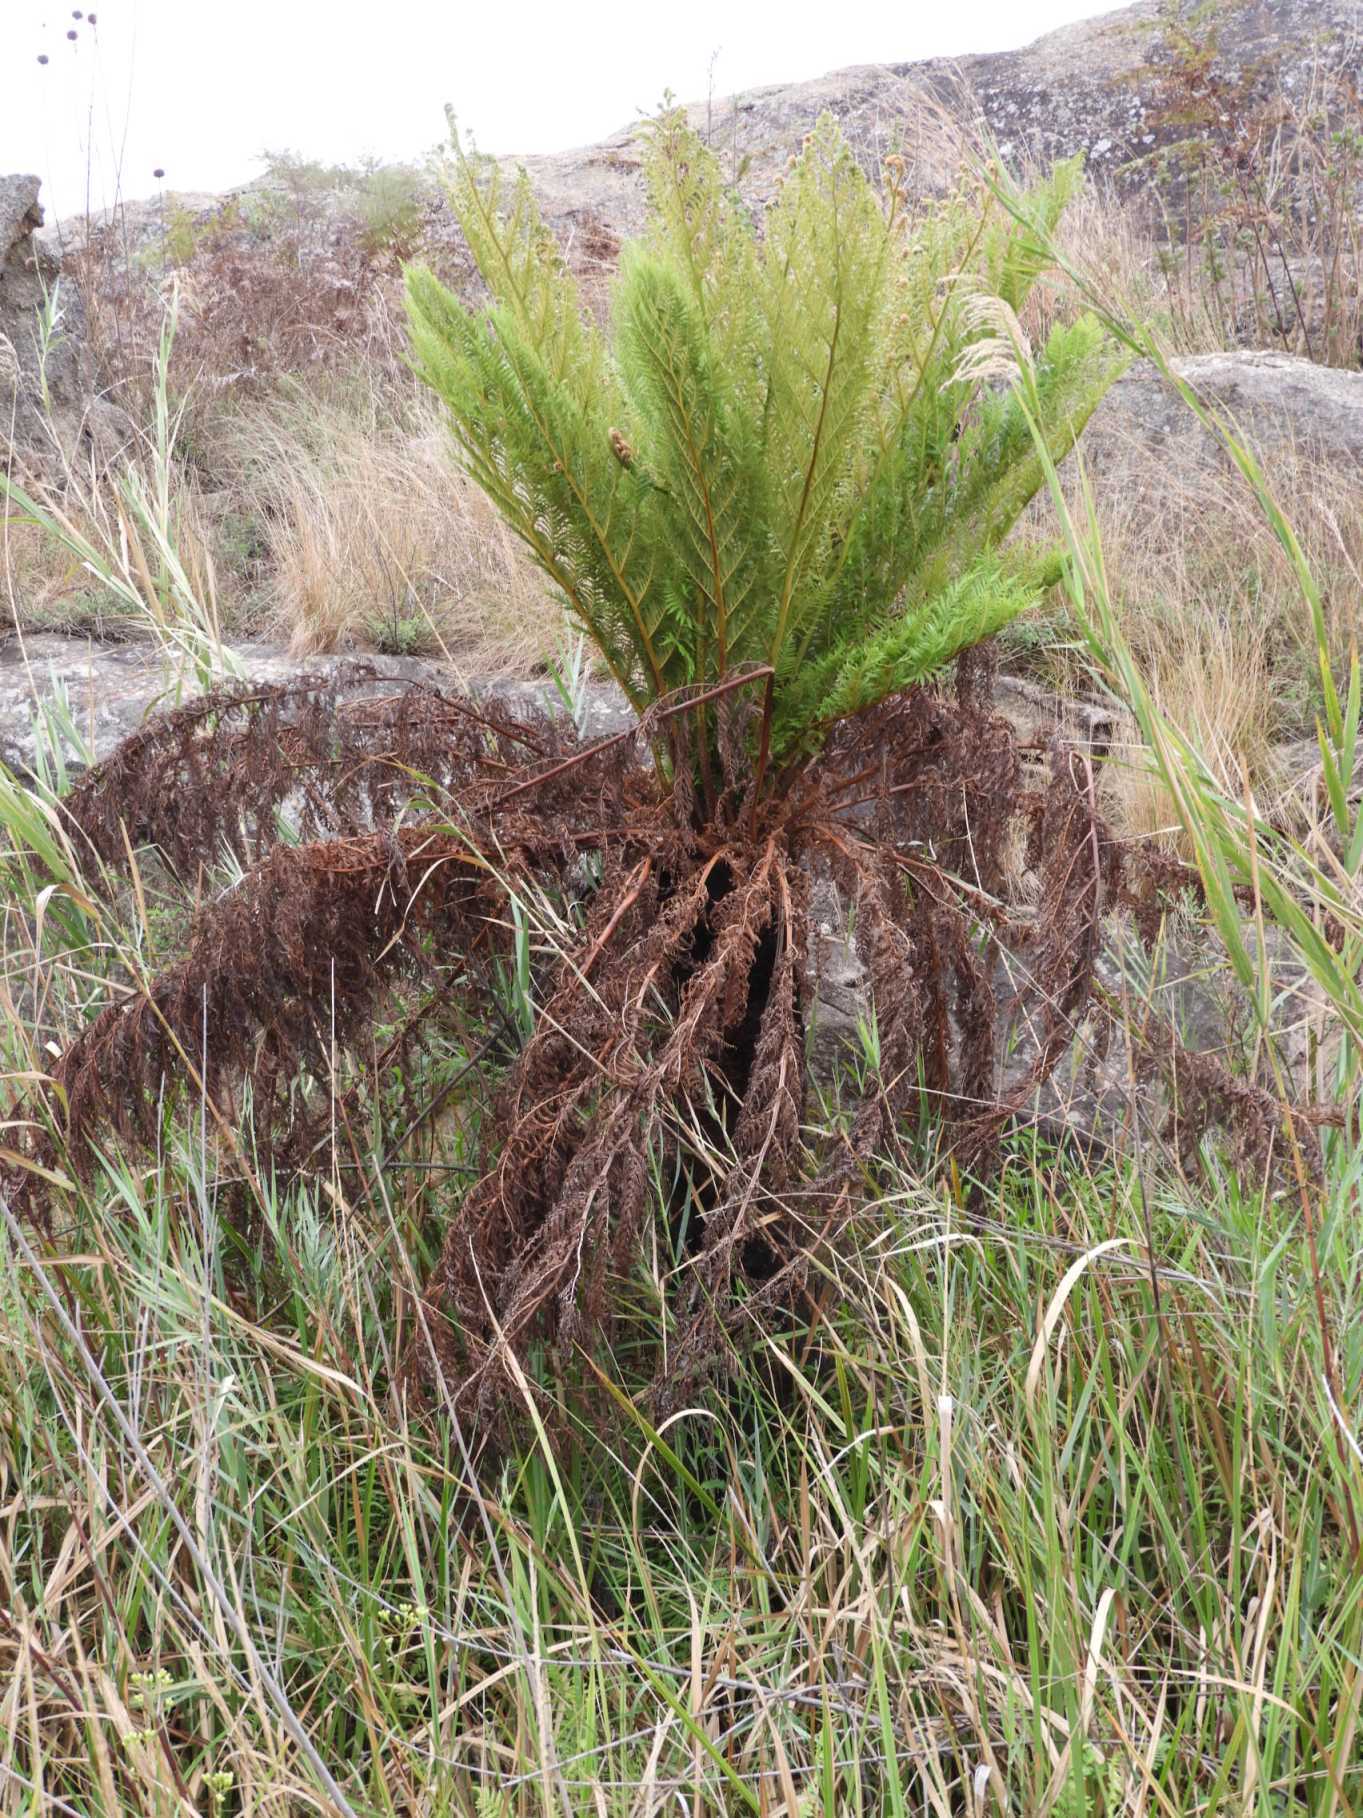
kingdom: Plantae
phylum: Tracheophyta
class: Polypodiopsida
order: Cyatheales
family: Cyatheaceae
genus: Alsophila
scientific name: Alsophila dregei
